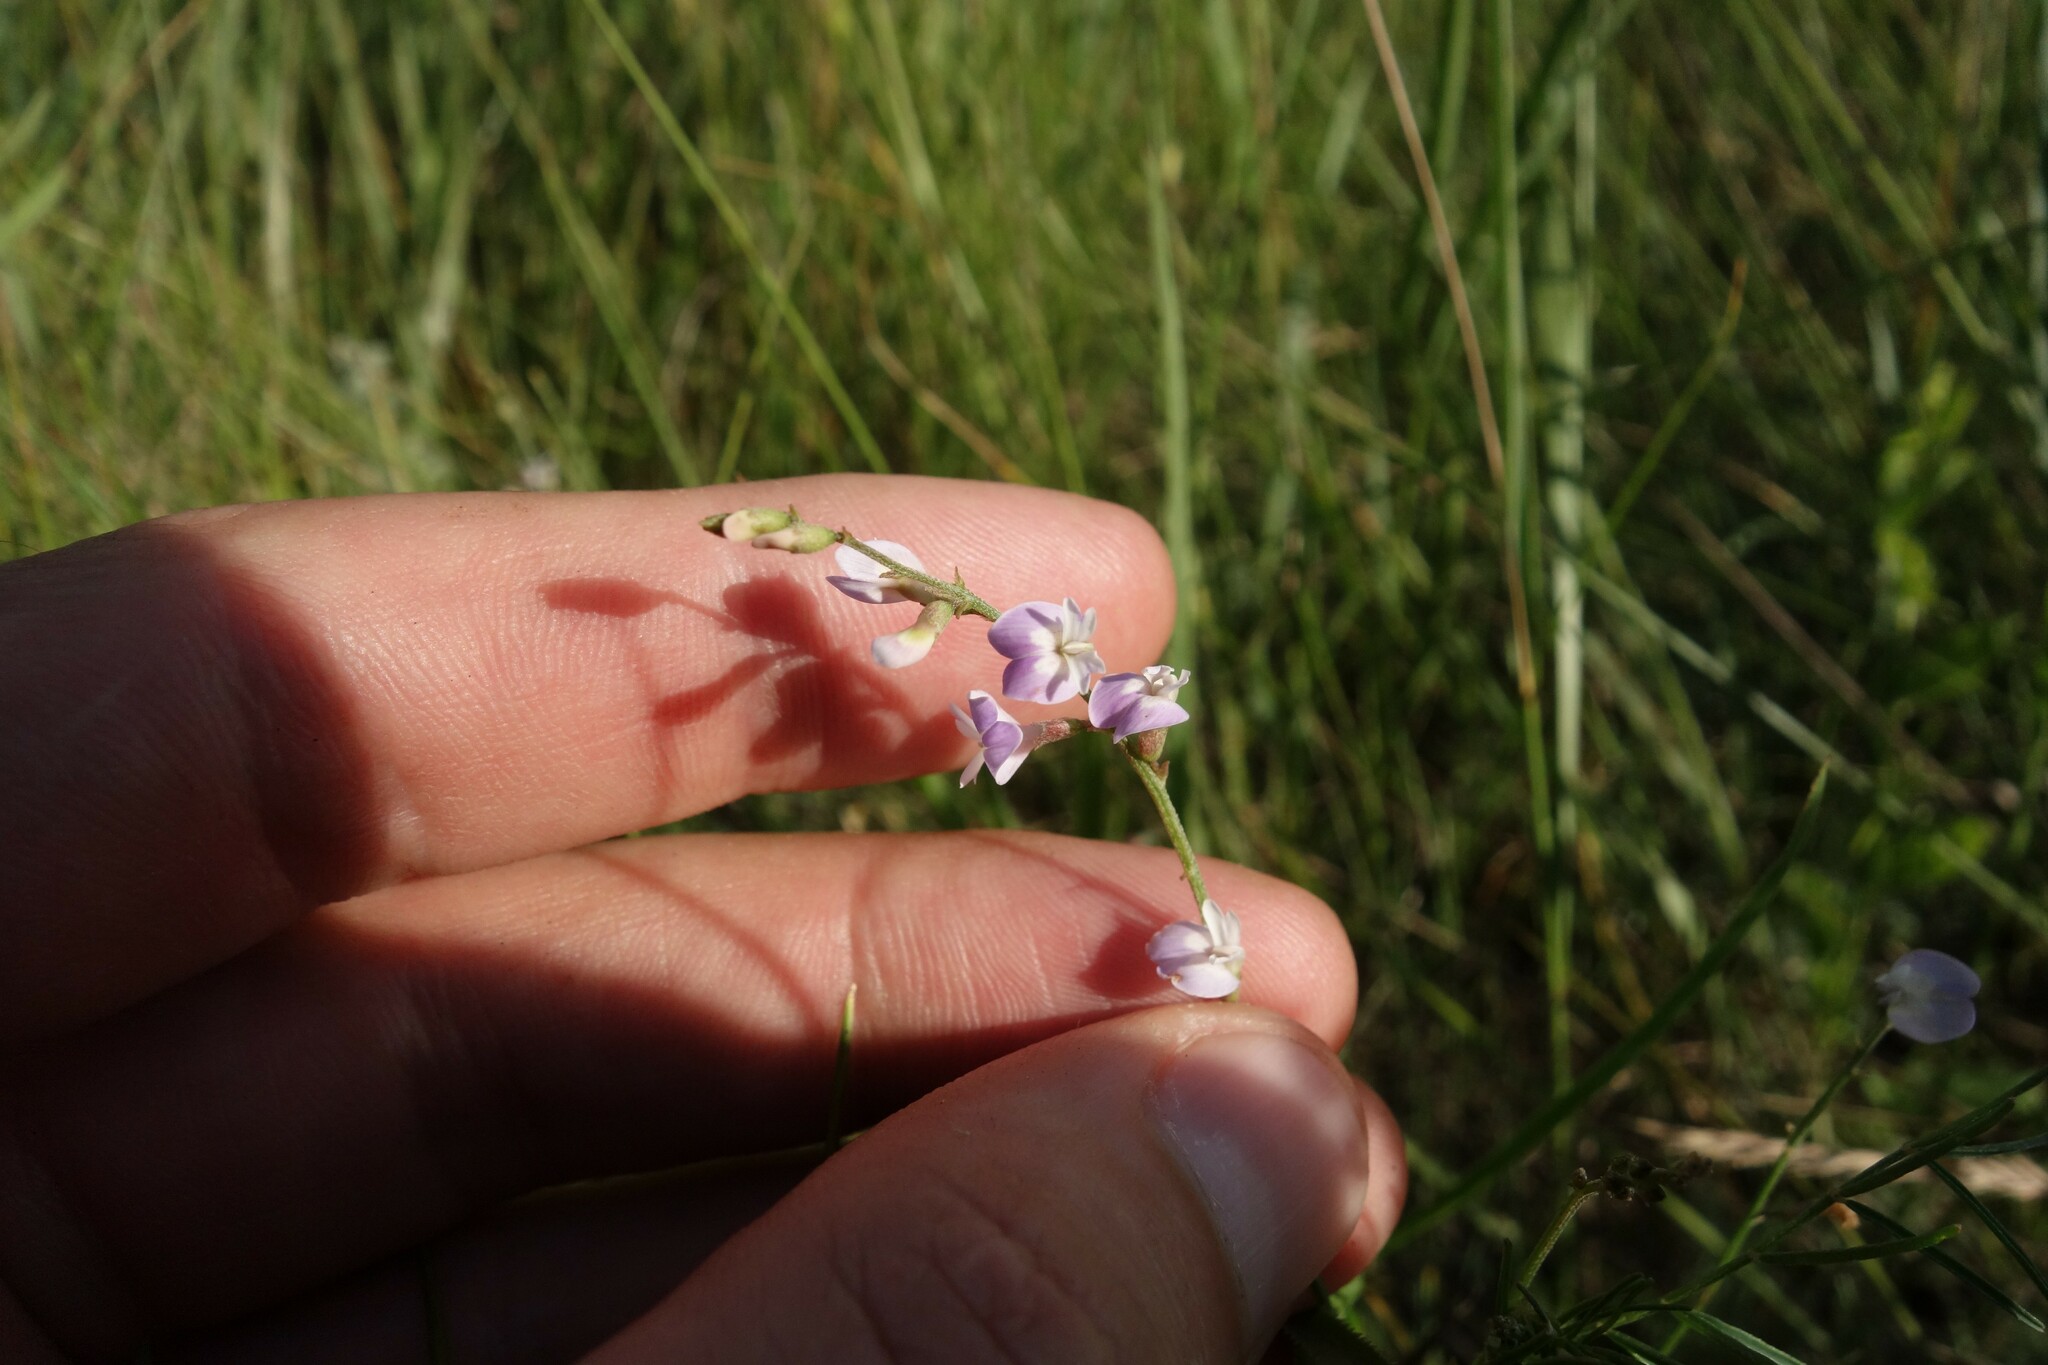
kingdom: Plantae
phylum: Tracheophyta
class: Magnoliopsida
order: Fabales
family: Fabaceae
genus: Astragalus
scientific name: Astragalus austriacus
